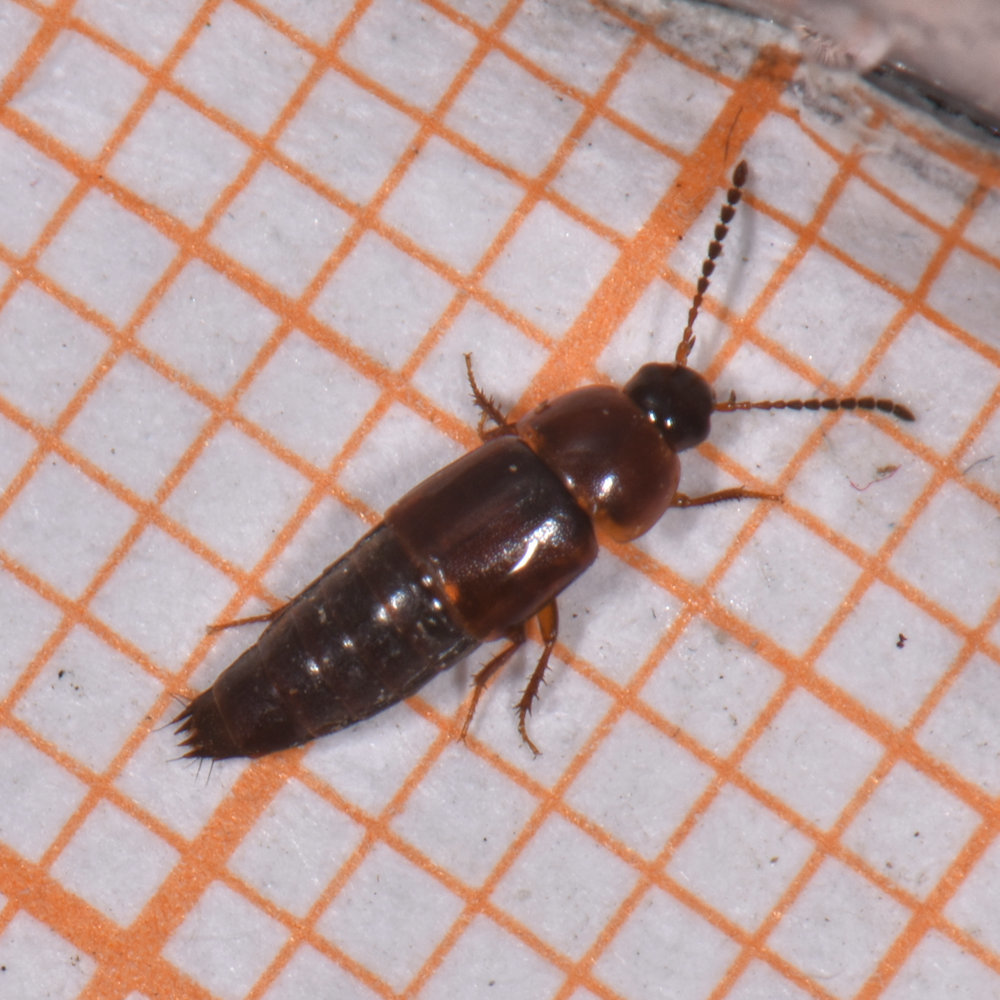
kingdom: Animalia
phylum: Arthropoda
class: Insecta
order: Coleoptera
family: Staphylinidae
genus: Tachinus
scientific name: Tachinus corticinus
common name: Staph beetle
